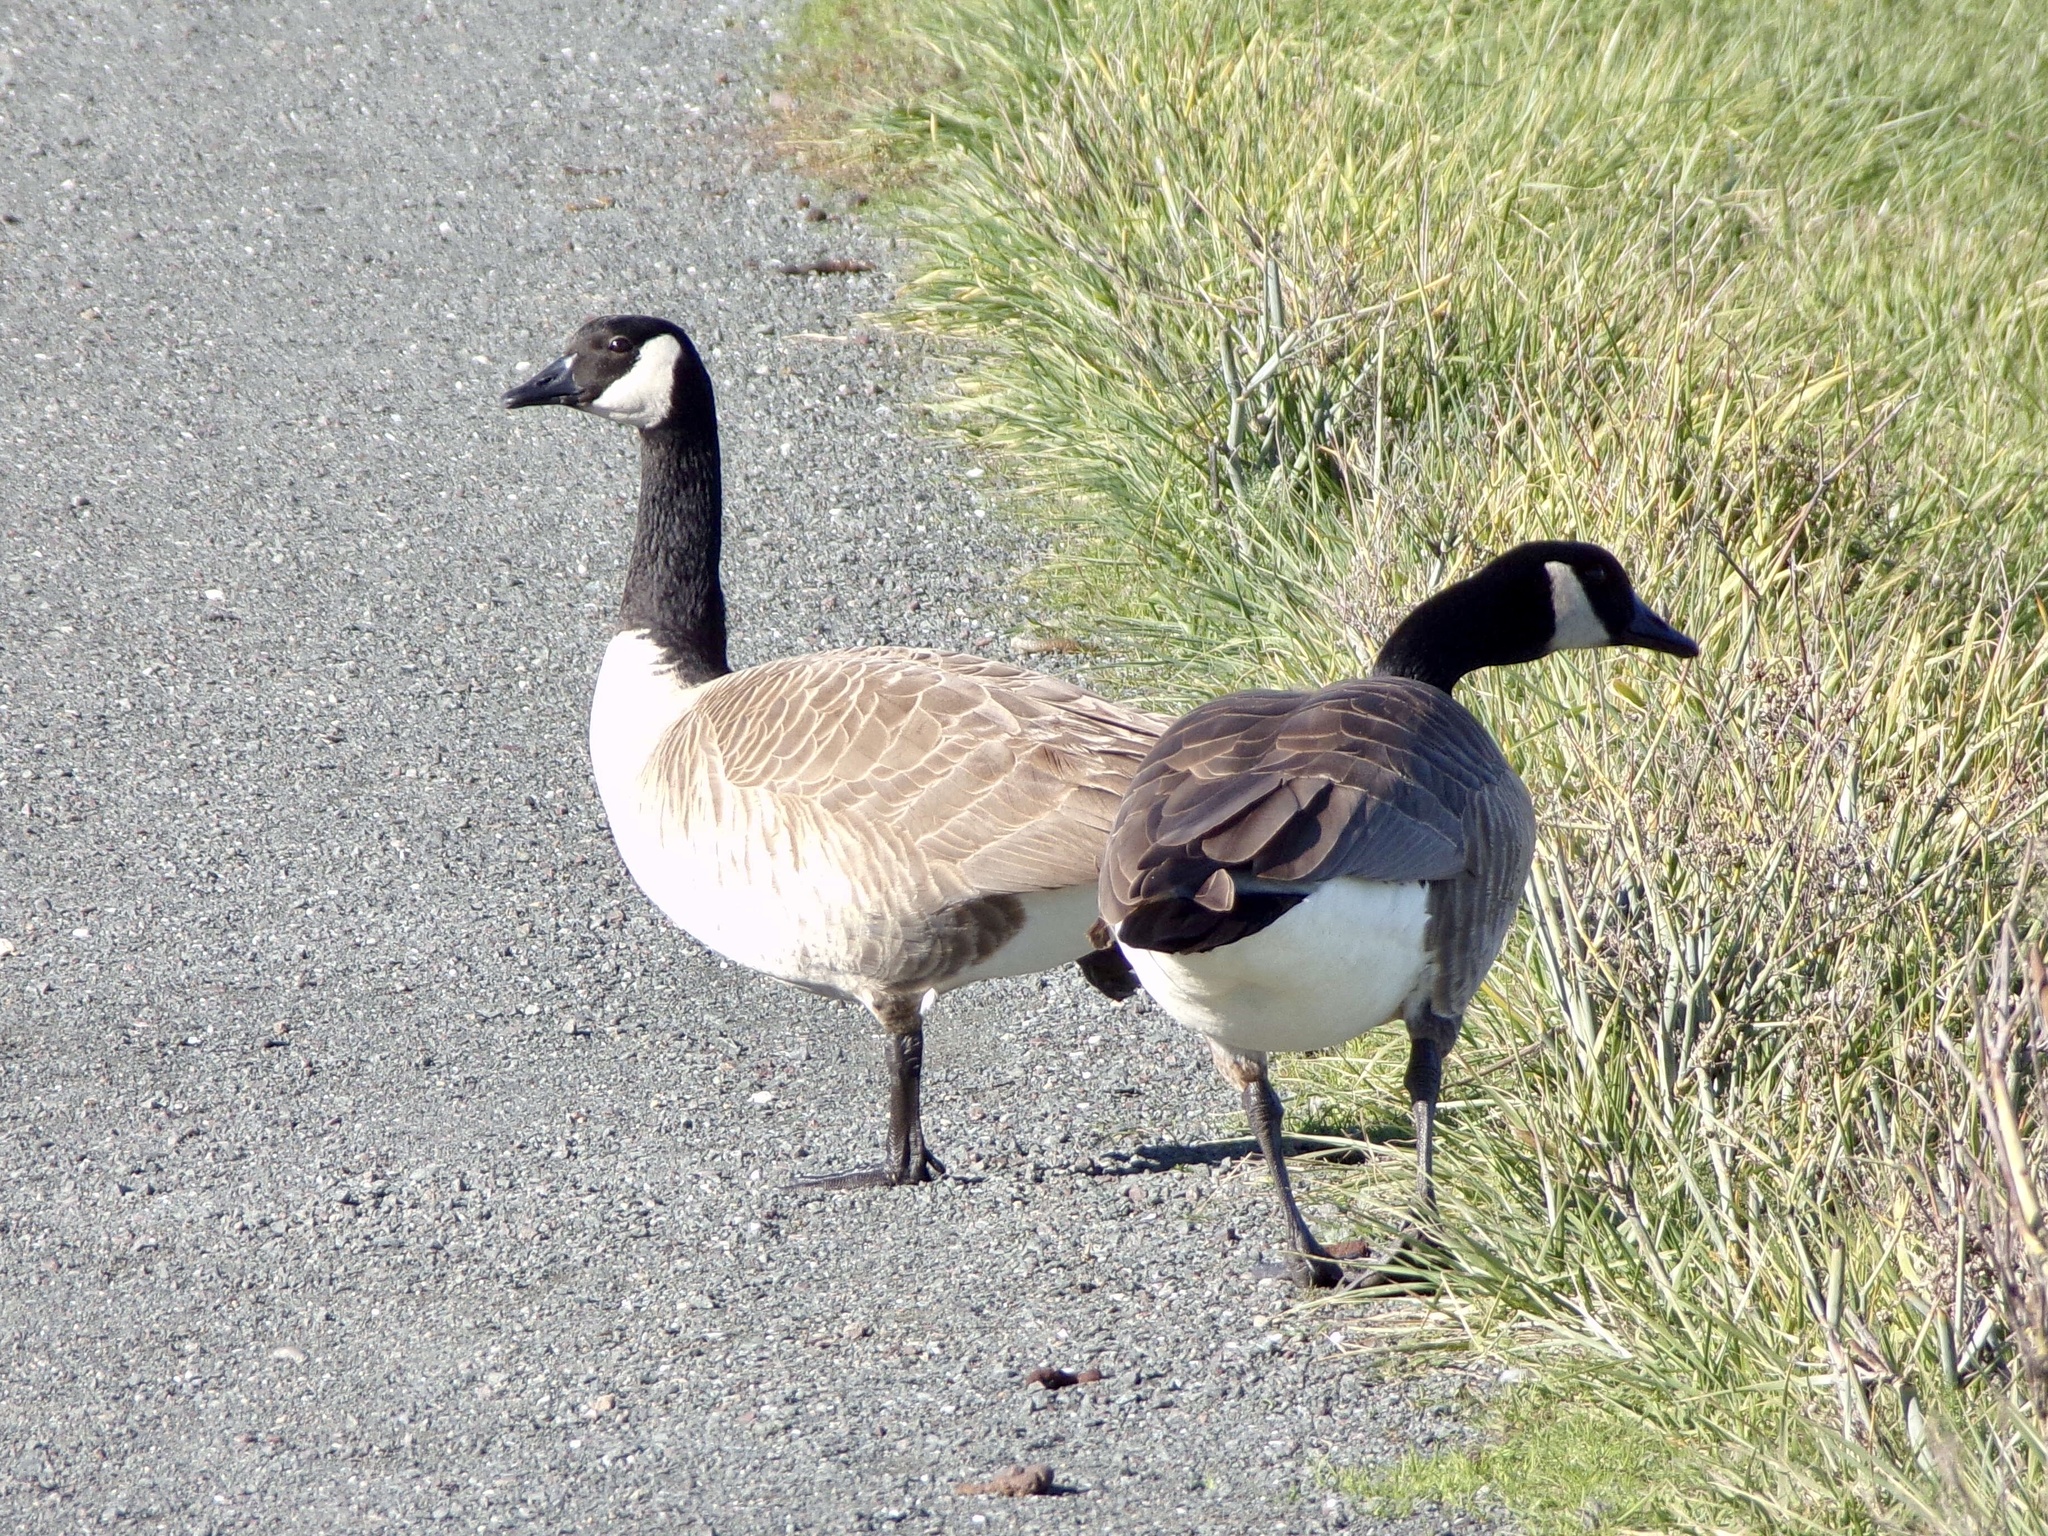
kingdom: Animalia
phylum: Chordata
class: Aves
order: Anseriformes
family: Anatidae
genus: Branta
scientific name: Branta canadensis
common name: Canada goose
